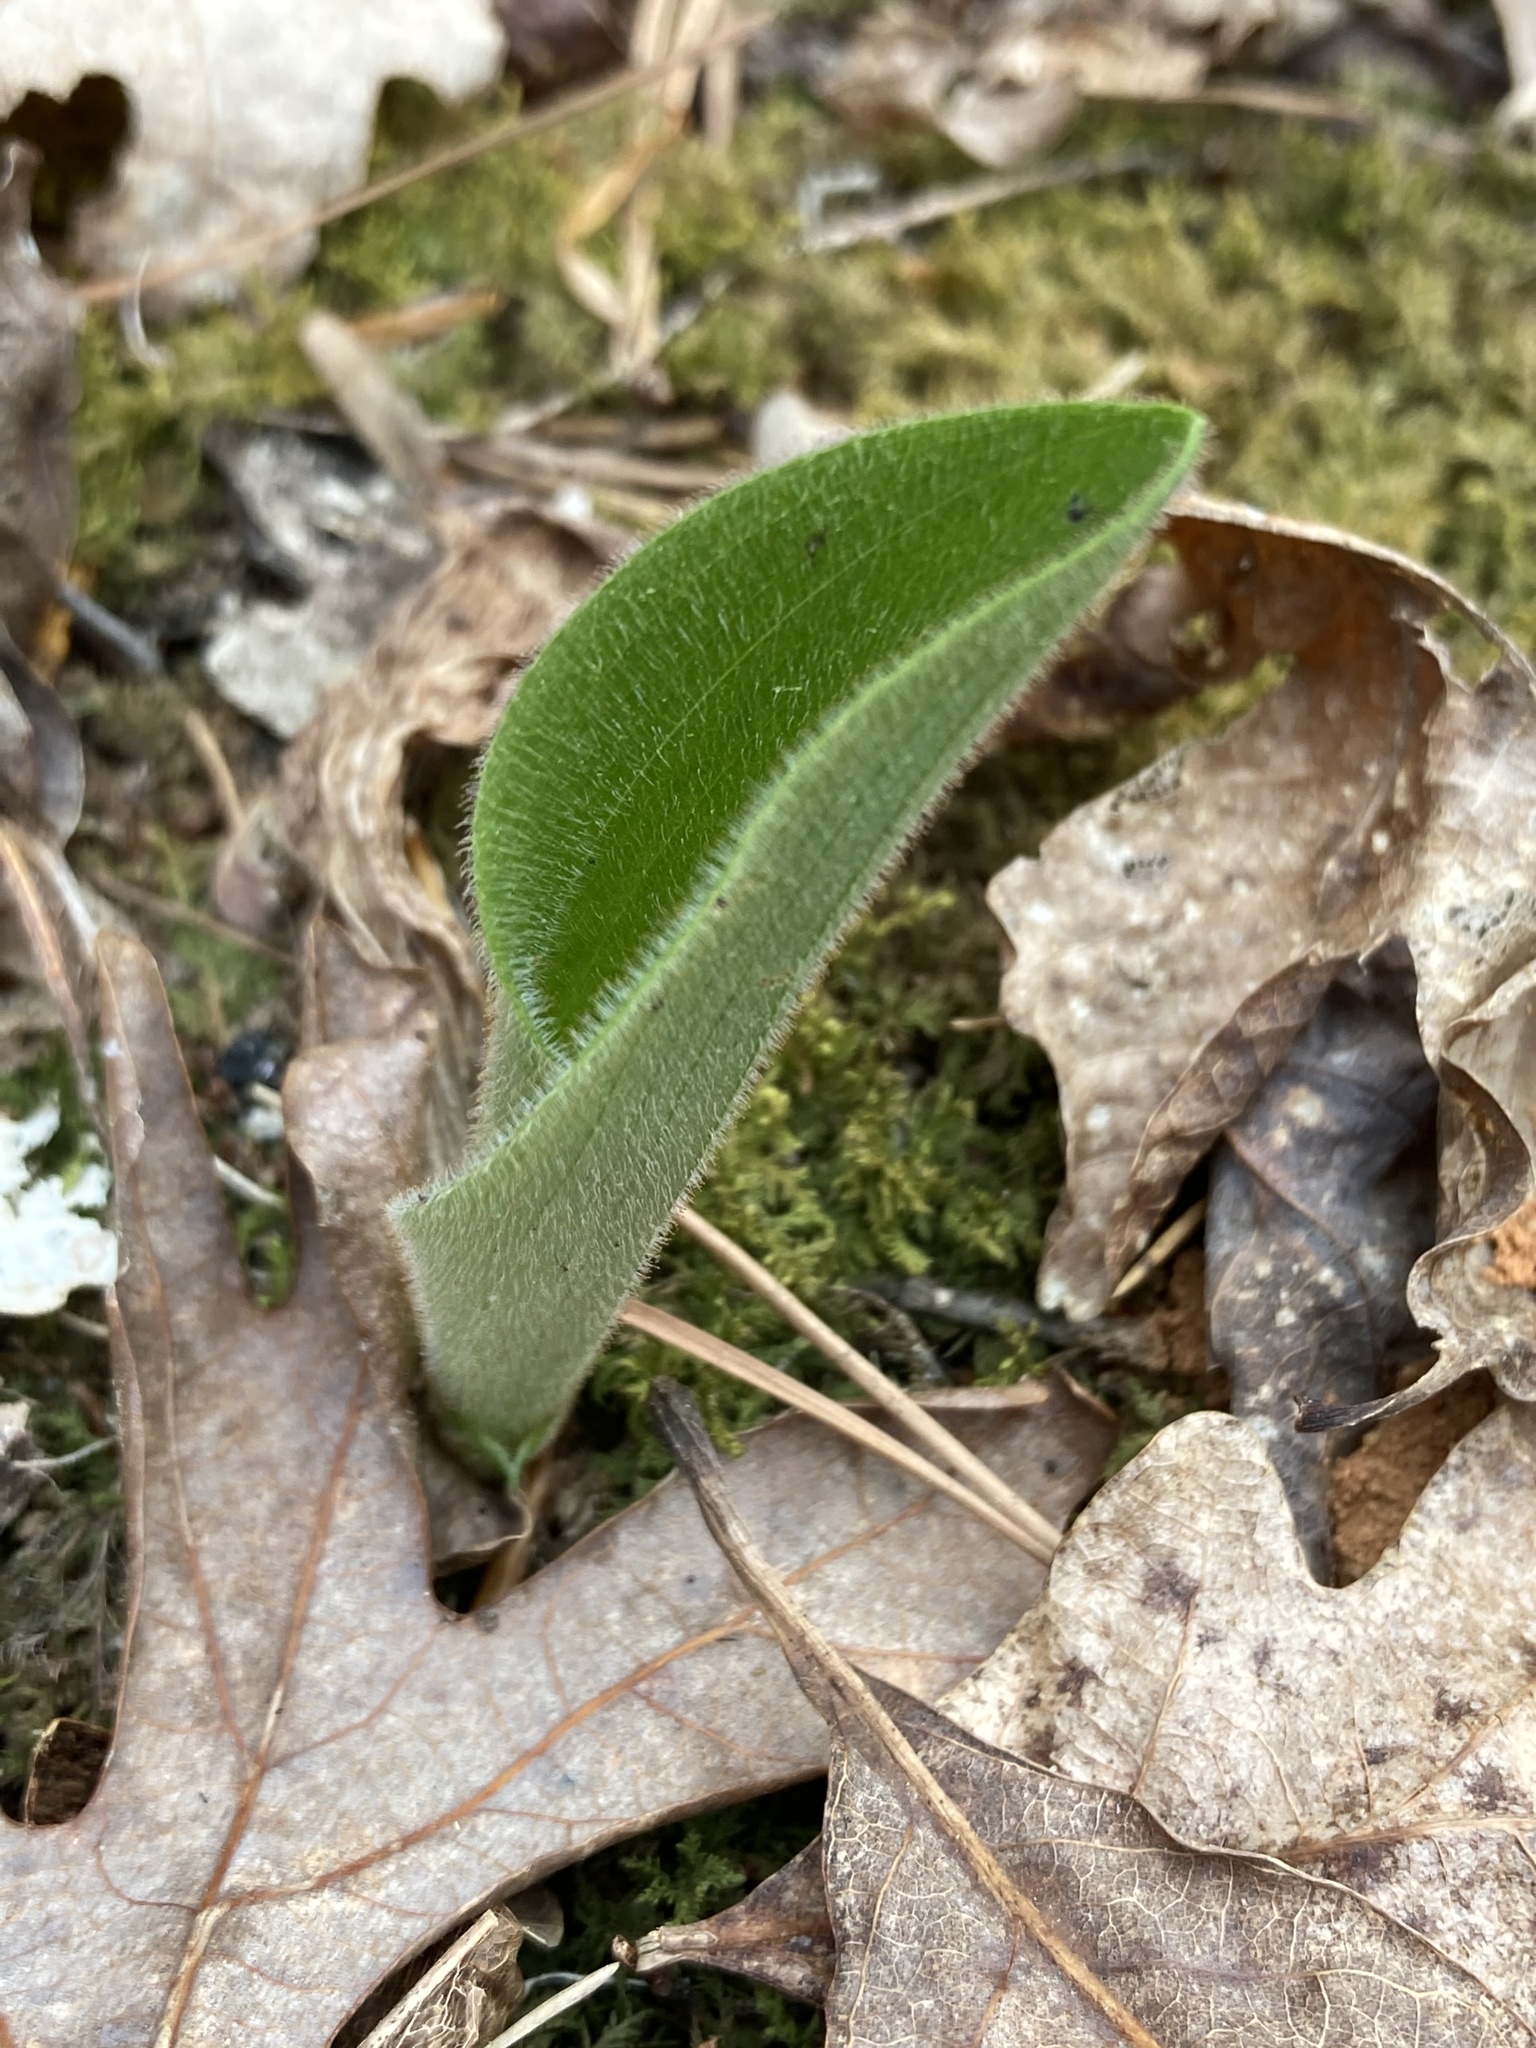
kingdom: Plantae
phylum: Tracheophyta
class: Liliopsida
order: Asparagales
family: Orchidaceae
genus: Cypripedium
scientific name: Cypripedium acaule
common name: Pink lady's-slipper
